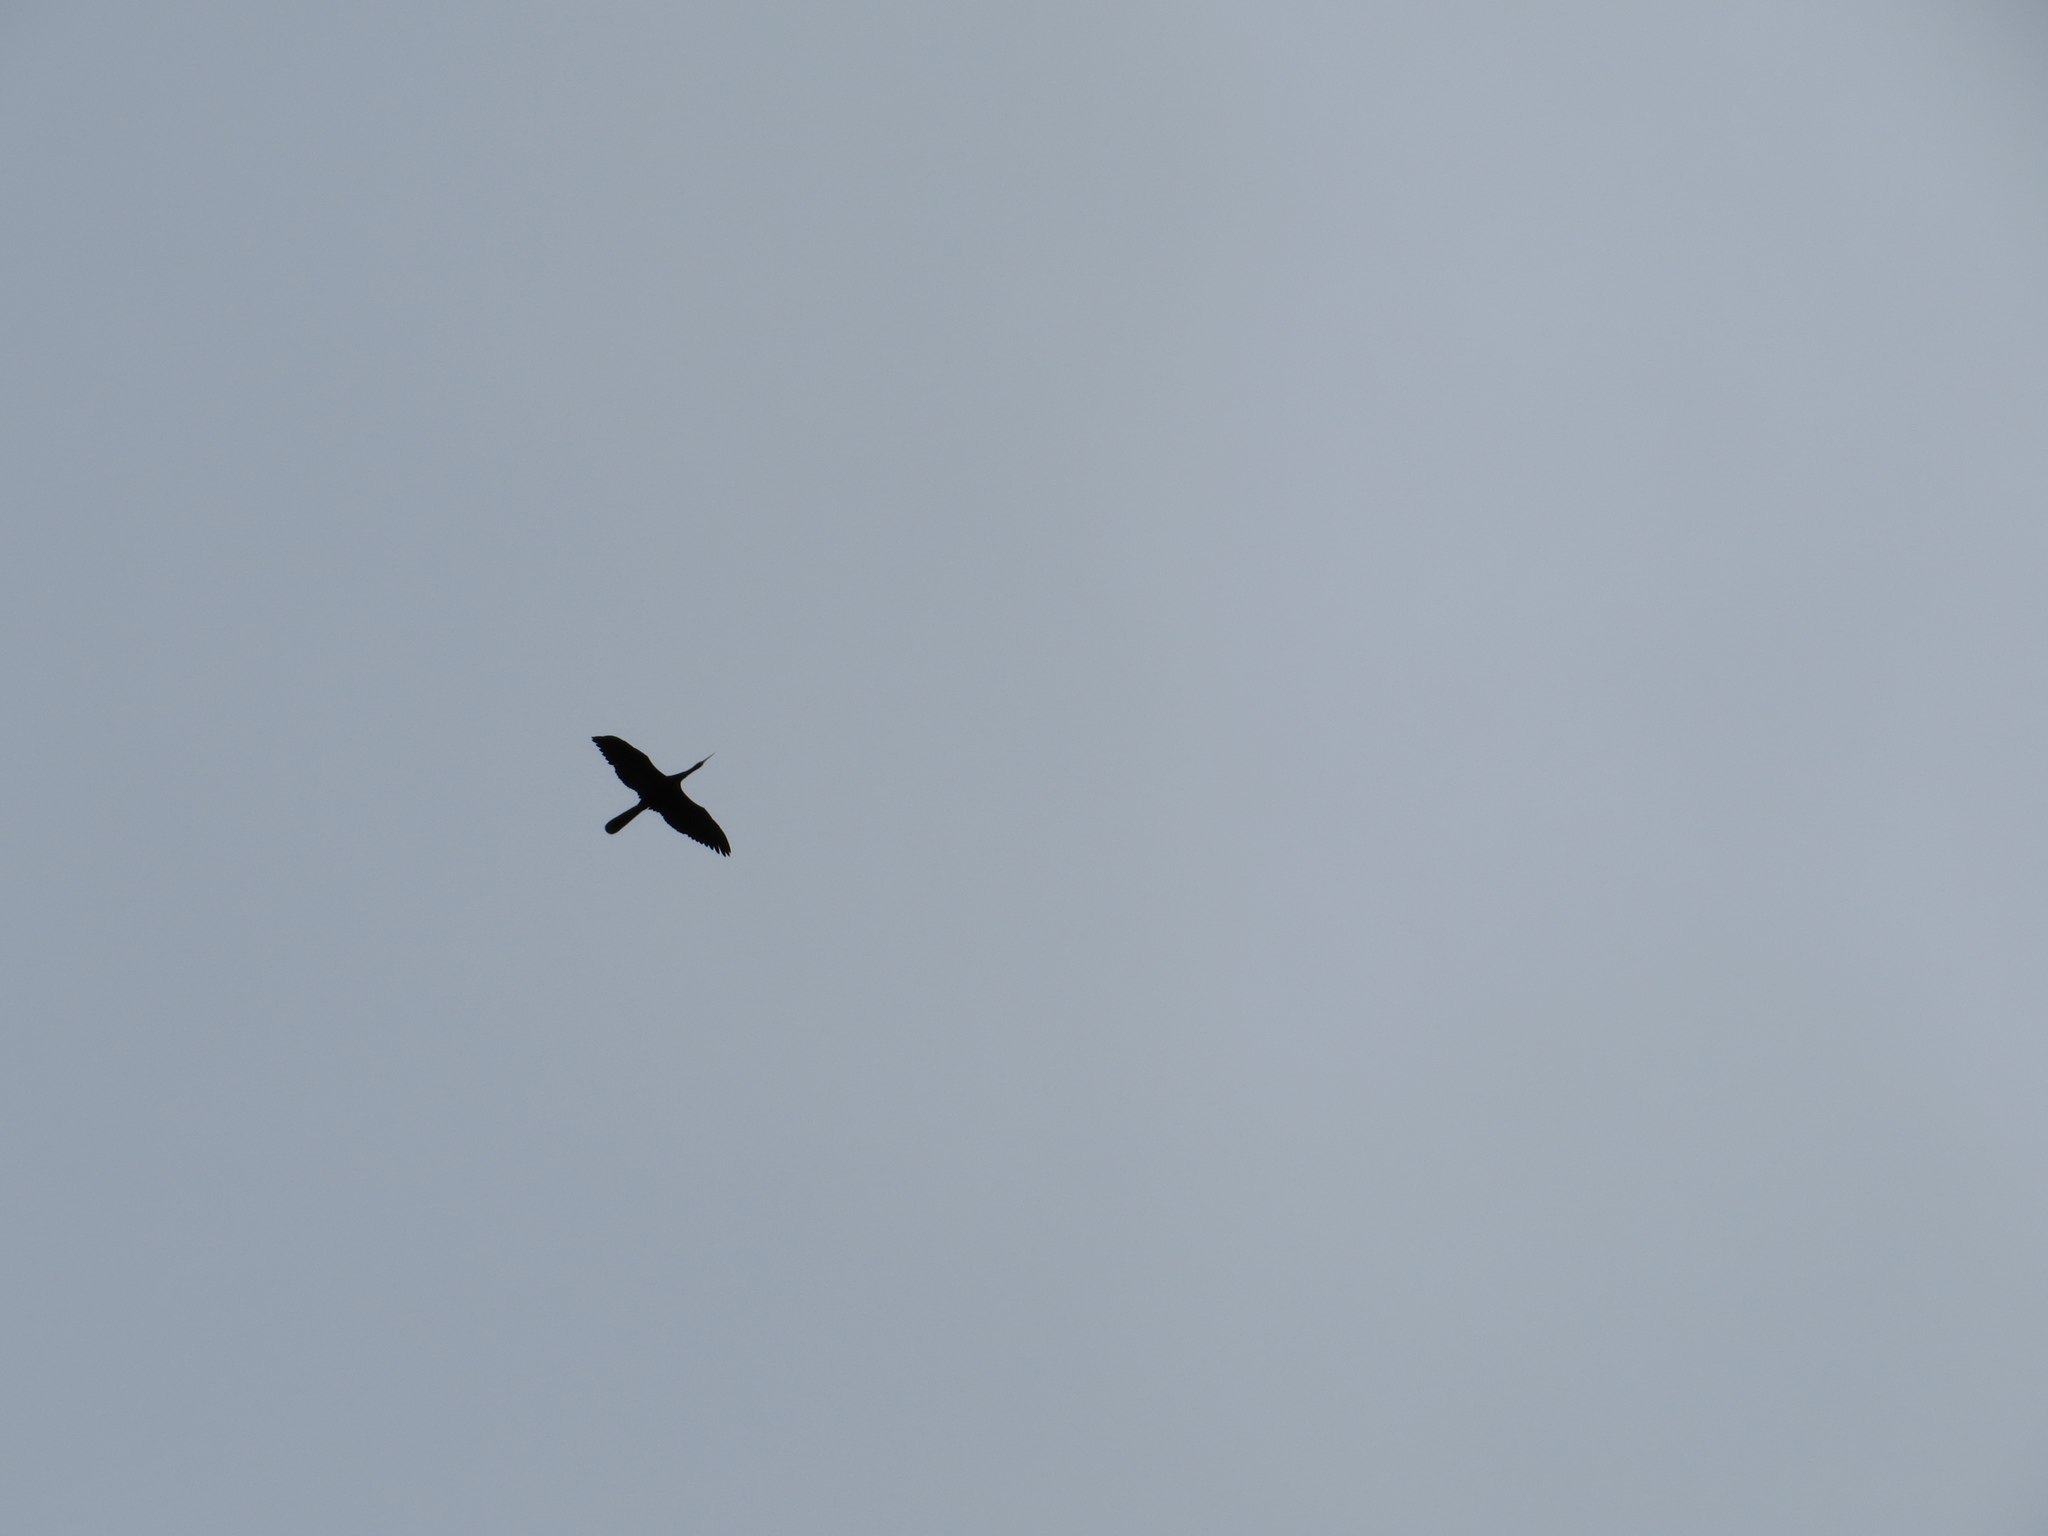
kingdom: Animalia
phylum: Chordata
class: Aves
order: Suliformes
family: Anhingidae
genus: Anhinga
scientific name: Anhinga anhinga
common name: Anhinga
